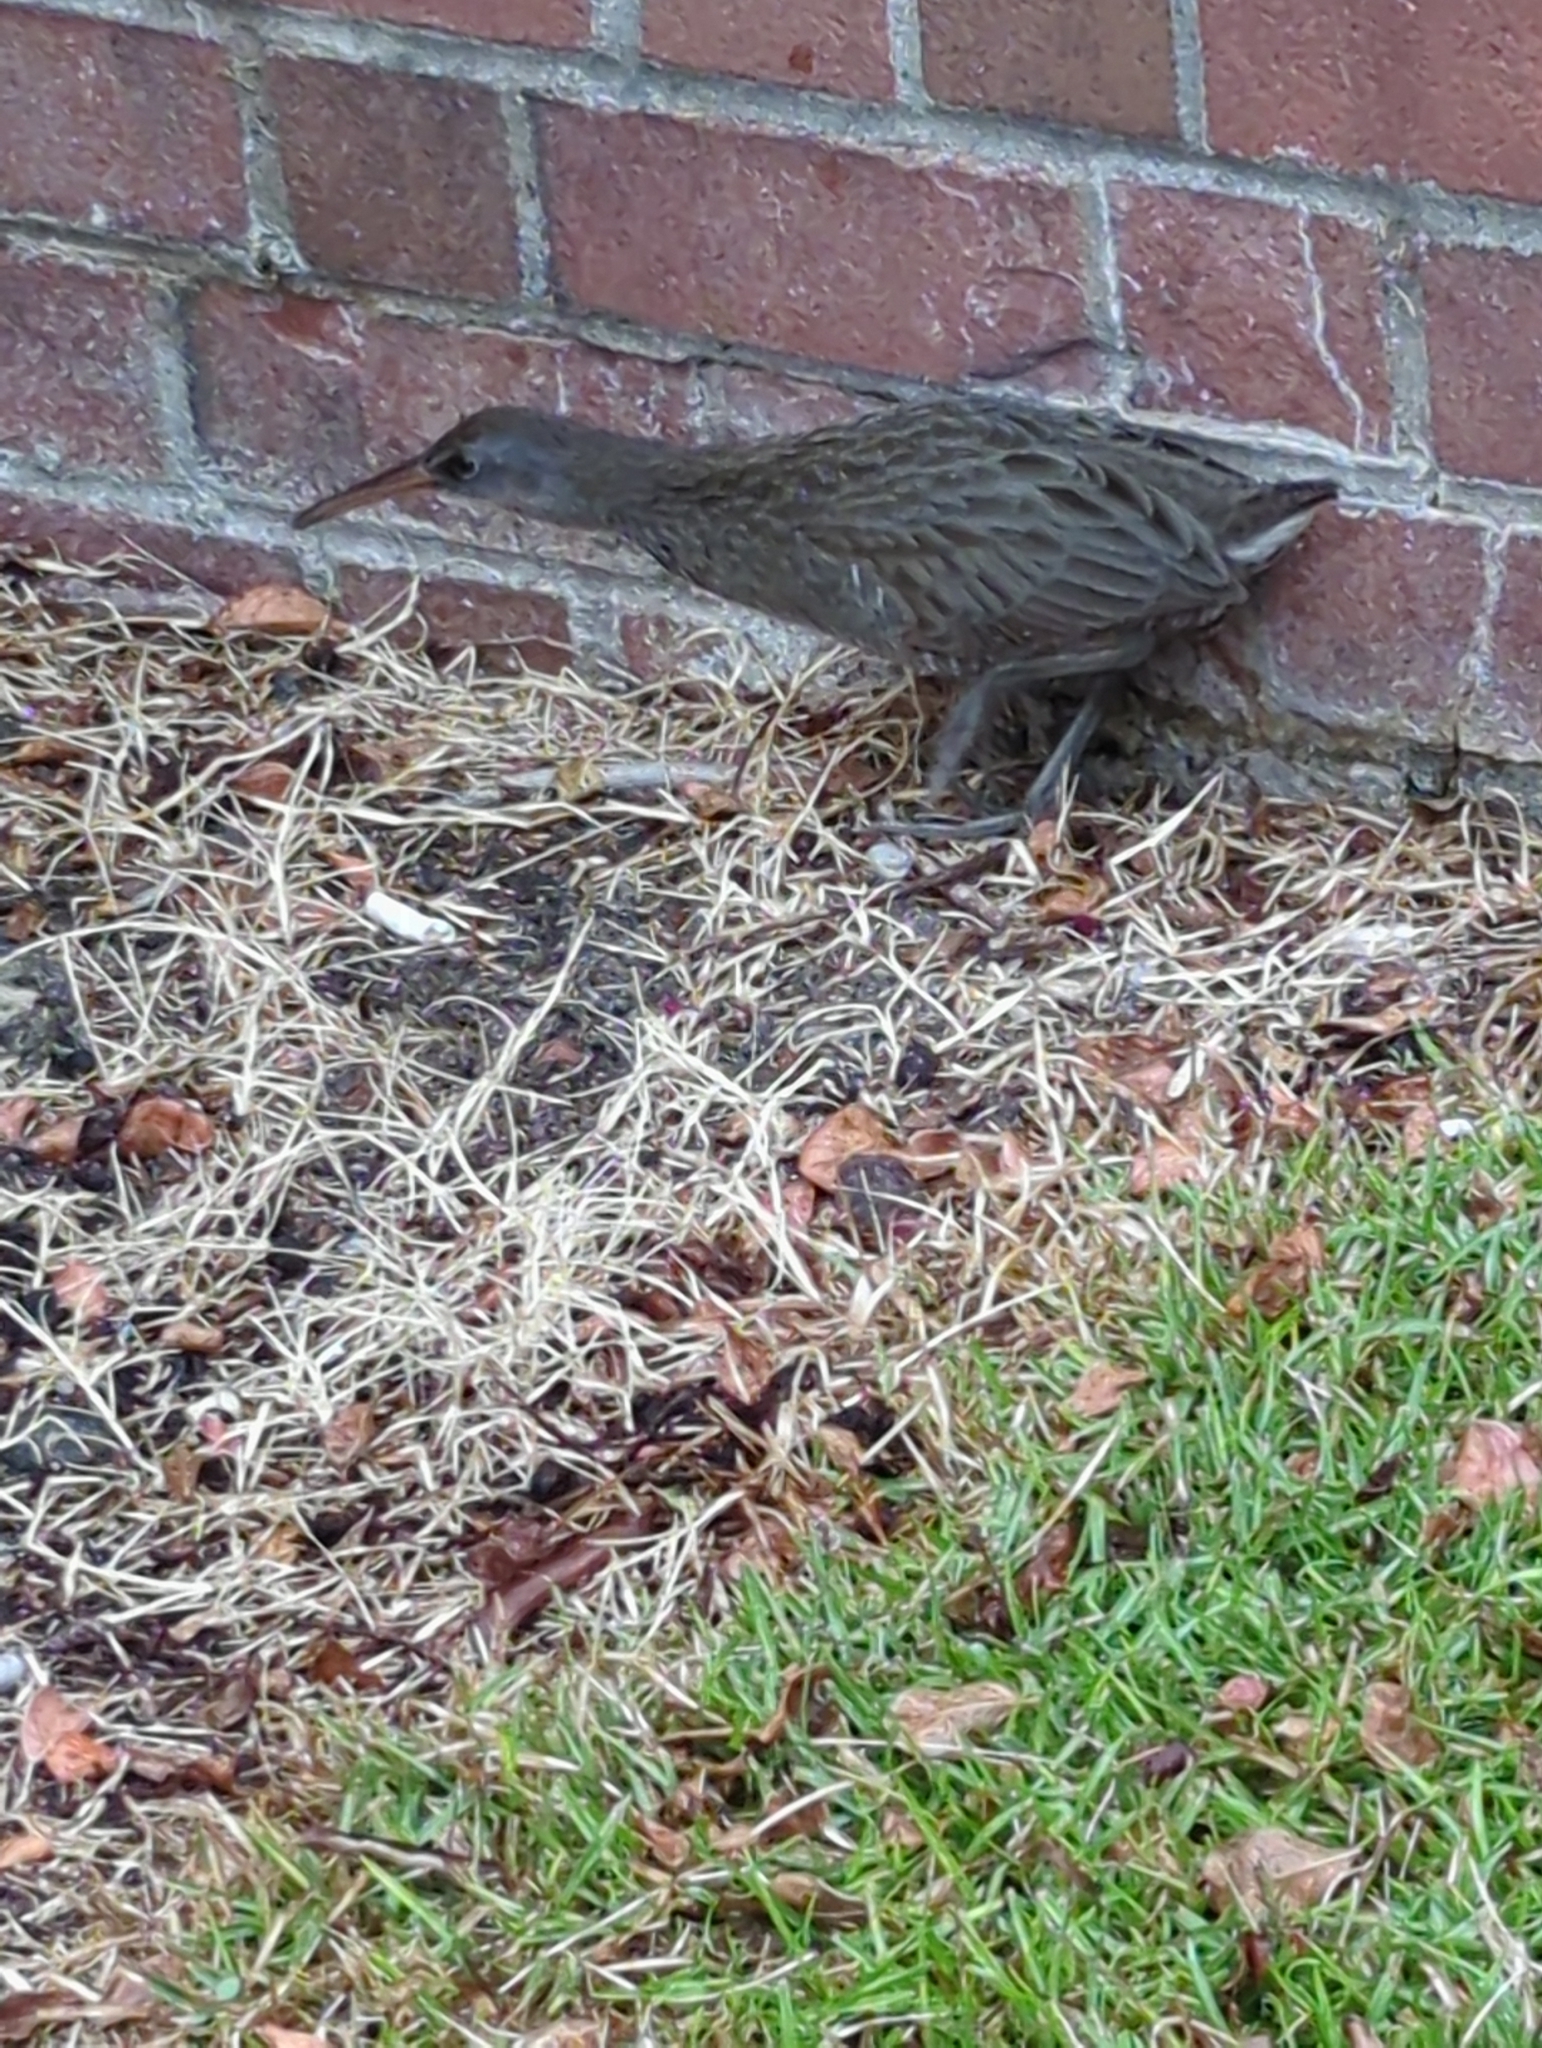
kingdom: Animalia
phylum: Chordata
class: Aves
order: Gruiformes
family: Rallidae
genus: Rallus
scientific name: Rallus crepitans
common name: Clapper rail
